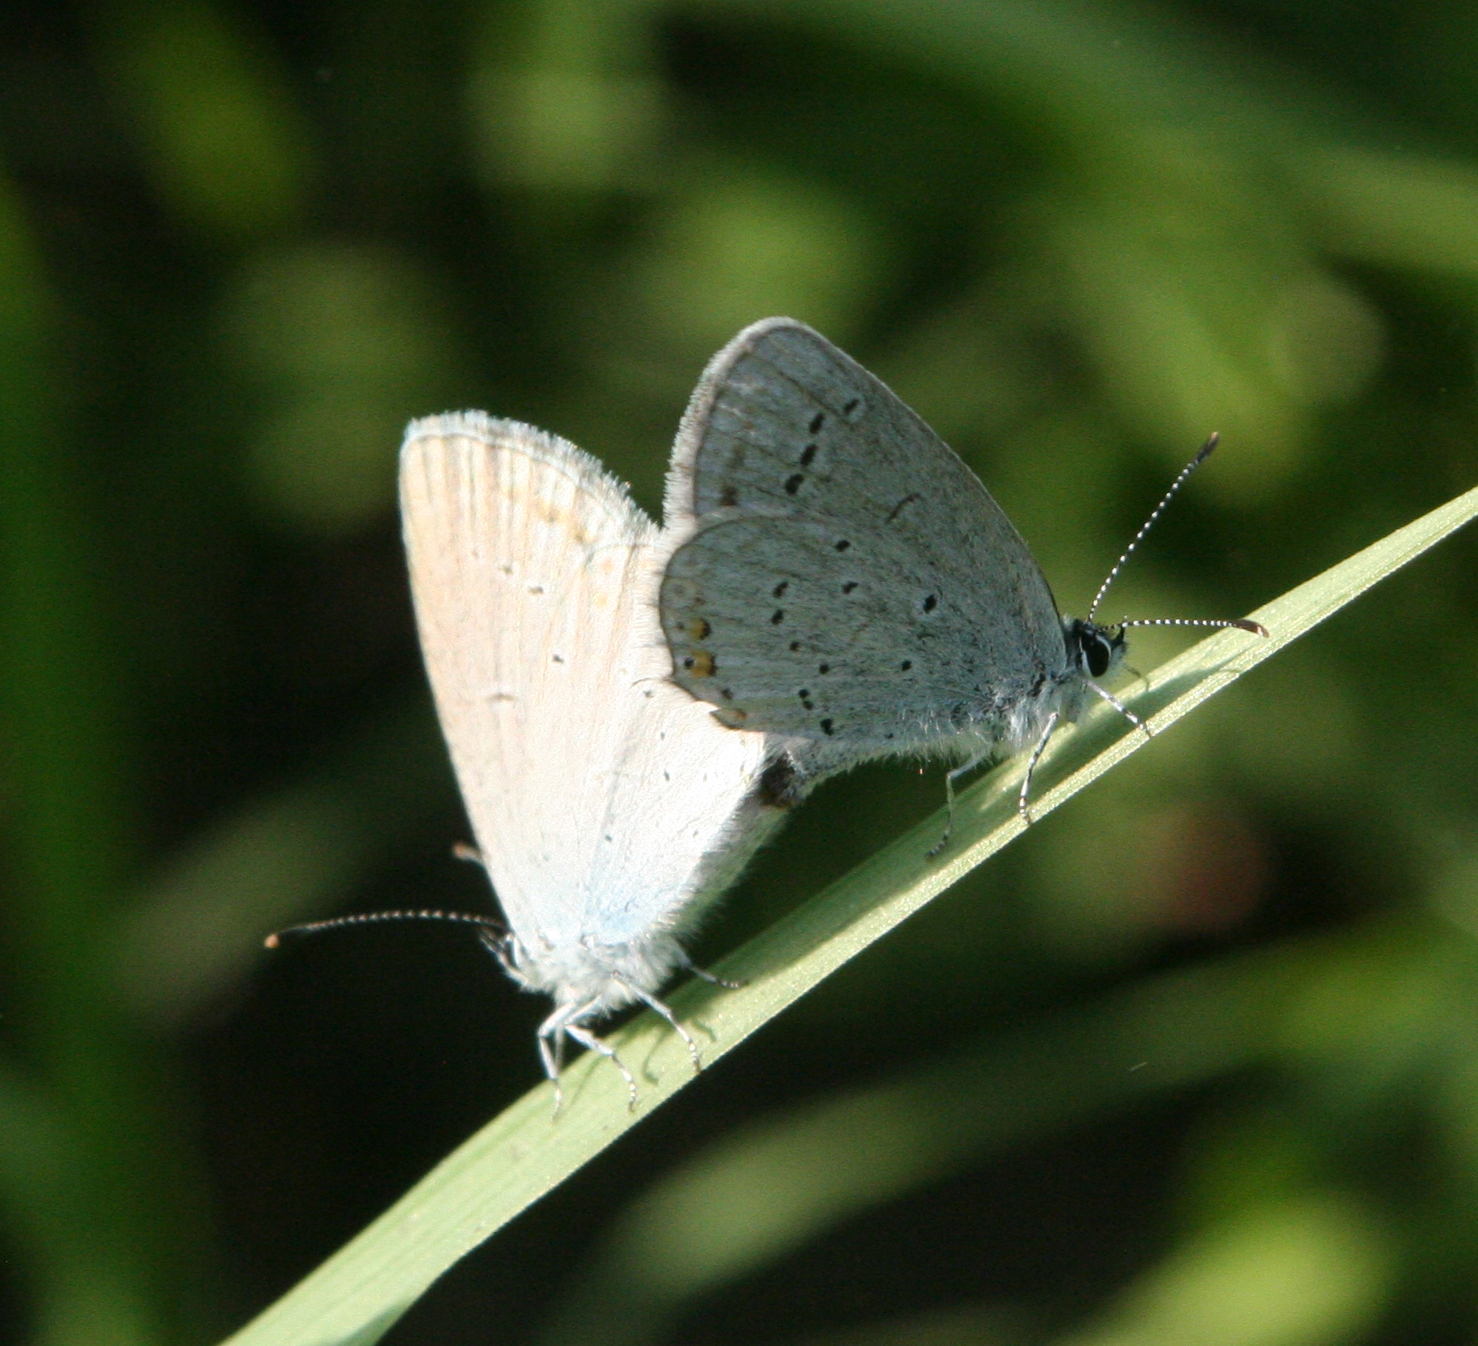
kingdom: Animalia
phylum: Arthropoda
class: Insecta
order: Lepidoptera
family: Lycaenidae
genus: Elkalyce
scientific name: Elkalyce argiades
